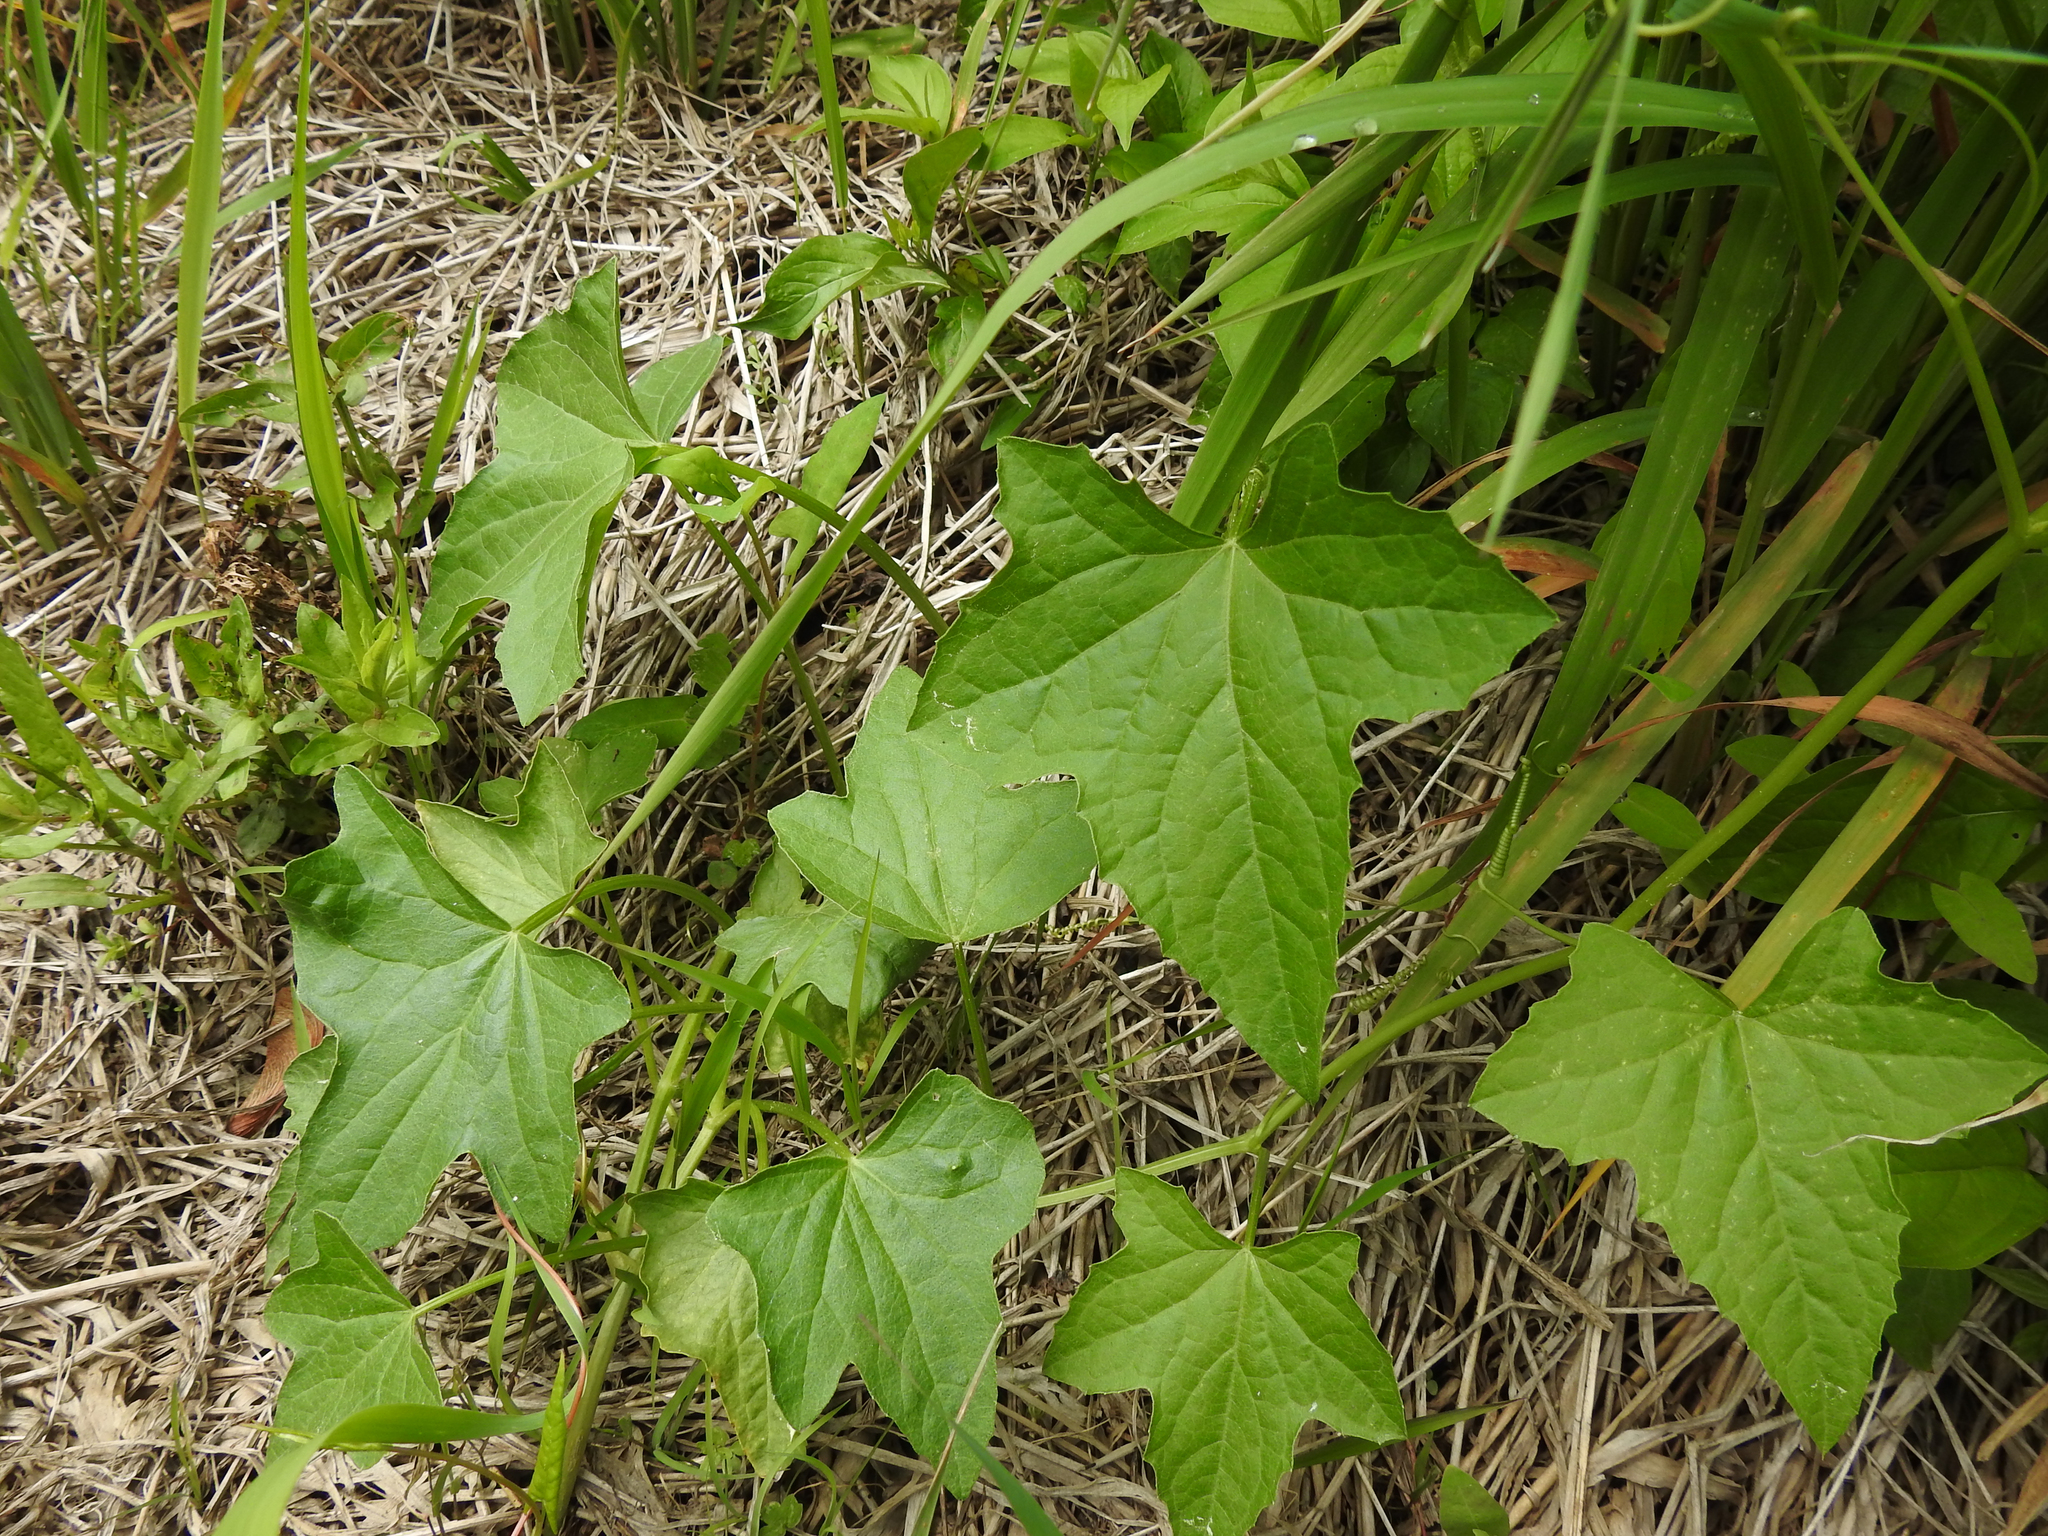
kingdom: Plantae
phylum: Tracheophyta
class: Magnoliopsida
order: Cucurbitales
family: Cucurbitaceae
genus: Echinocystis
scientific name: Echinocystis lobata
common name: Wild cucumber
